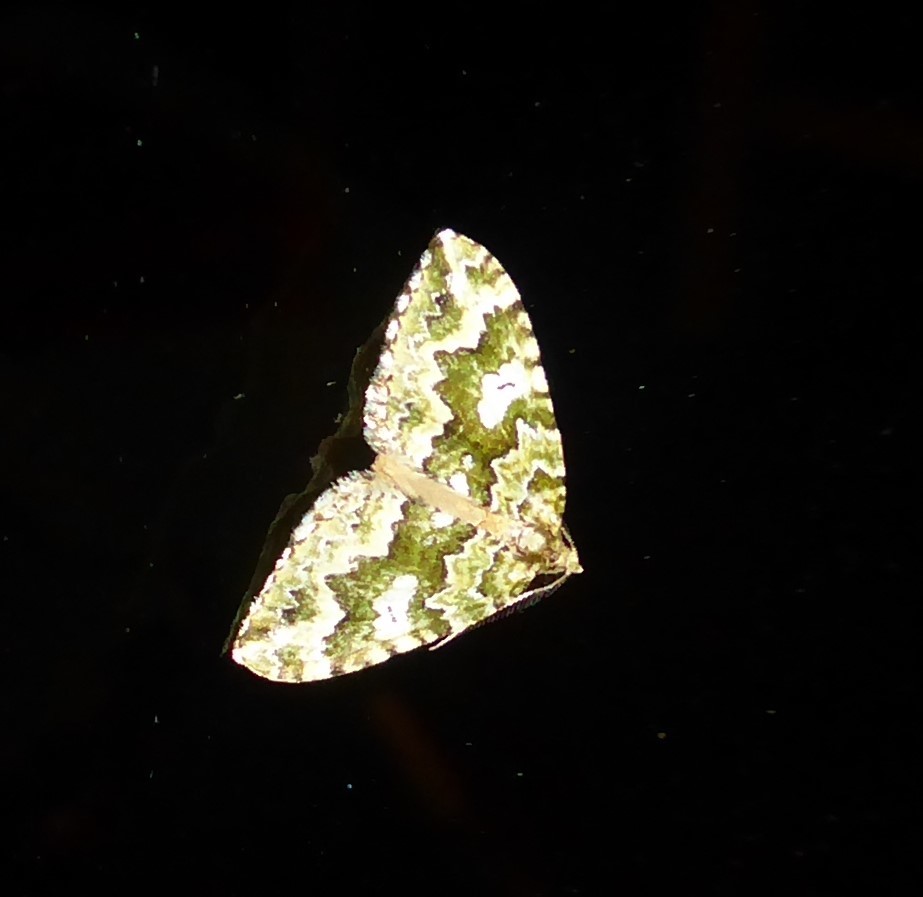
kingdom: Animalia
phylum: Arthropoda
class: Insecta
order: Lepidoptera
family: Geometridae
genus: Asaphodes
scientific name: Asaphodes beata
